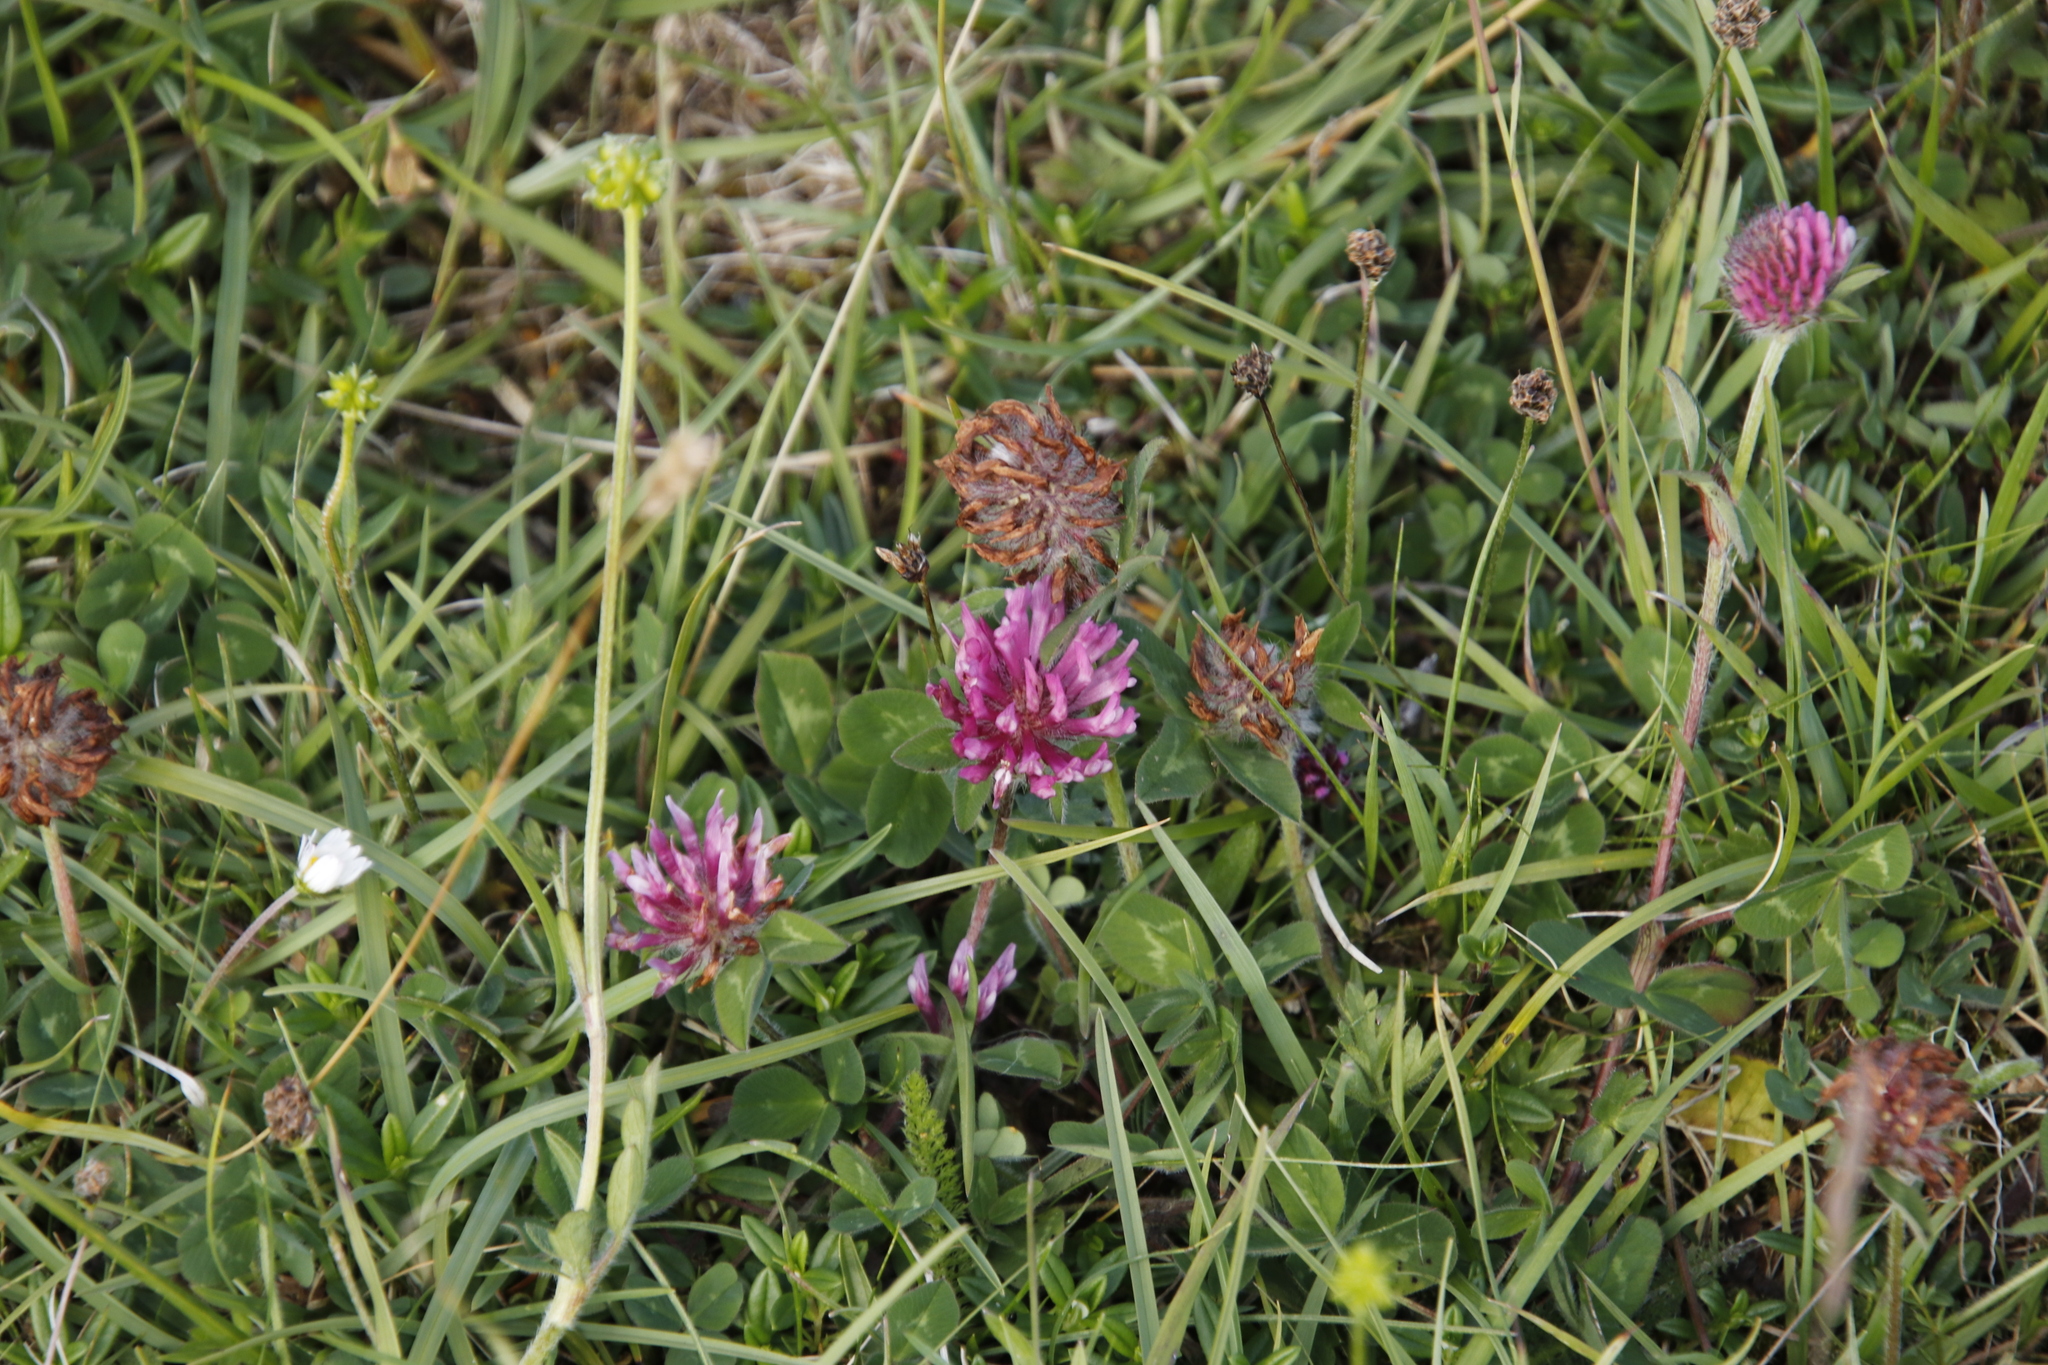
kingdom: Plantae
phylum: Tracheophyta
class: Magnoliopsida
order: Fabales
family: Fabaceae
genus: Trifolium
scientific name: Trifolium pratense
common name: Red clover
